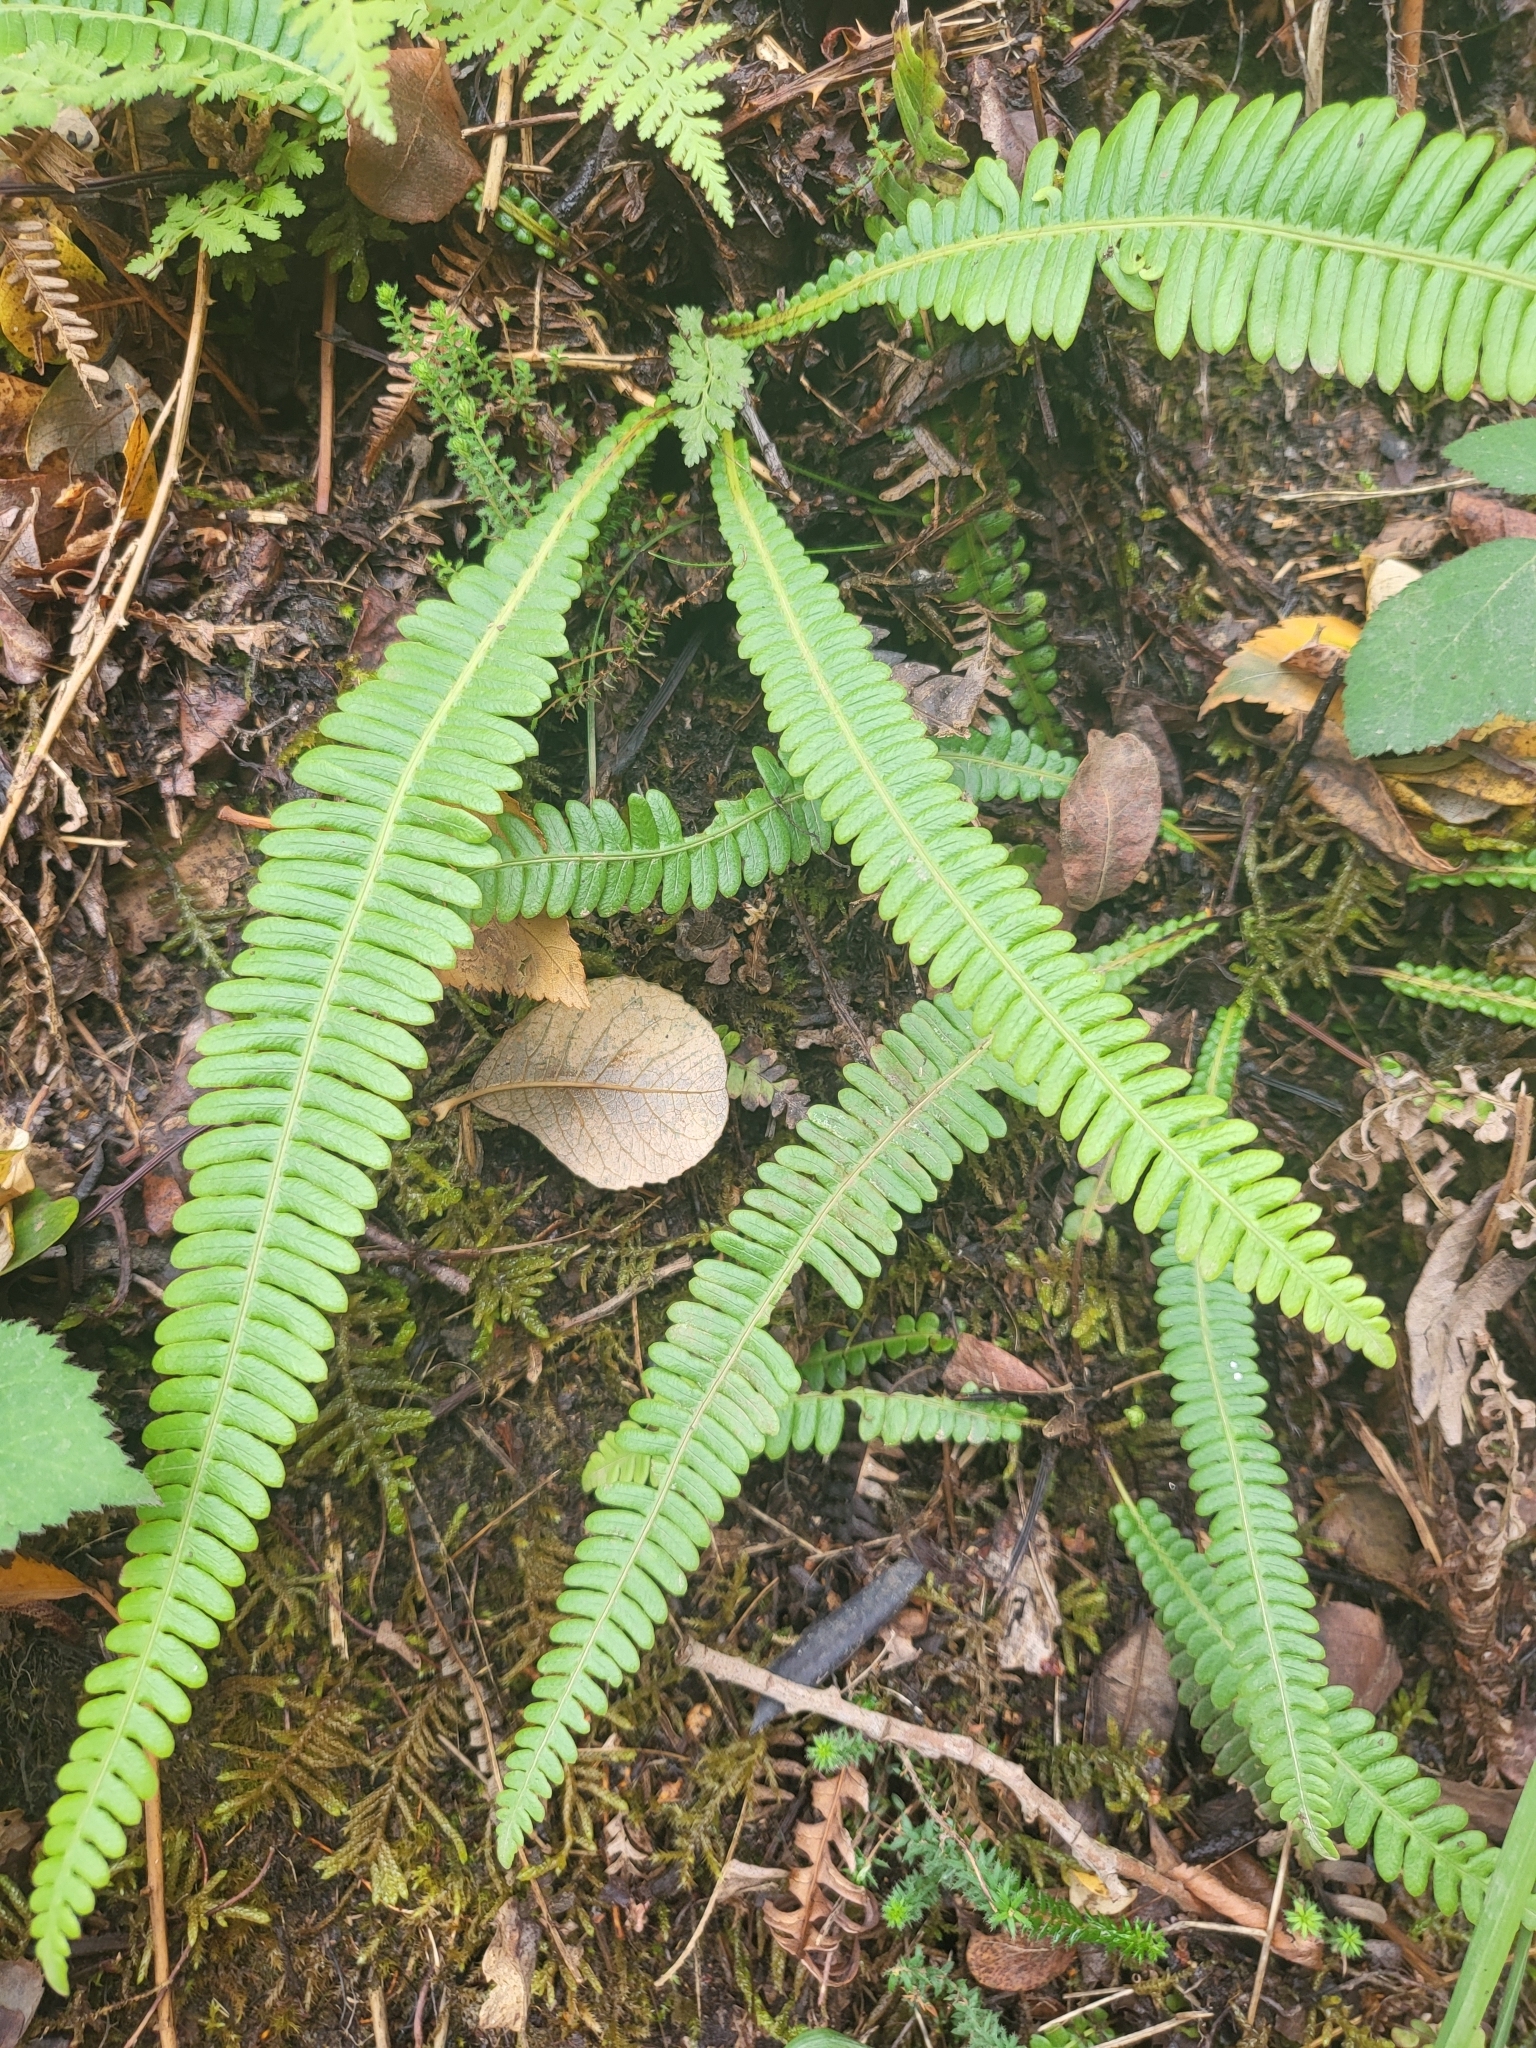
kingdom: Plantae
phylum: Tracheophyta
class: Polypodiopsida
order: Polypodiales
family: Blechnaceae
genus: Struthiopteris
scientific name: Struthiopteris spicant
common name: Deer fern
